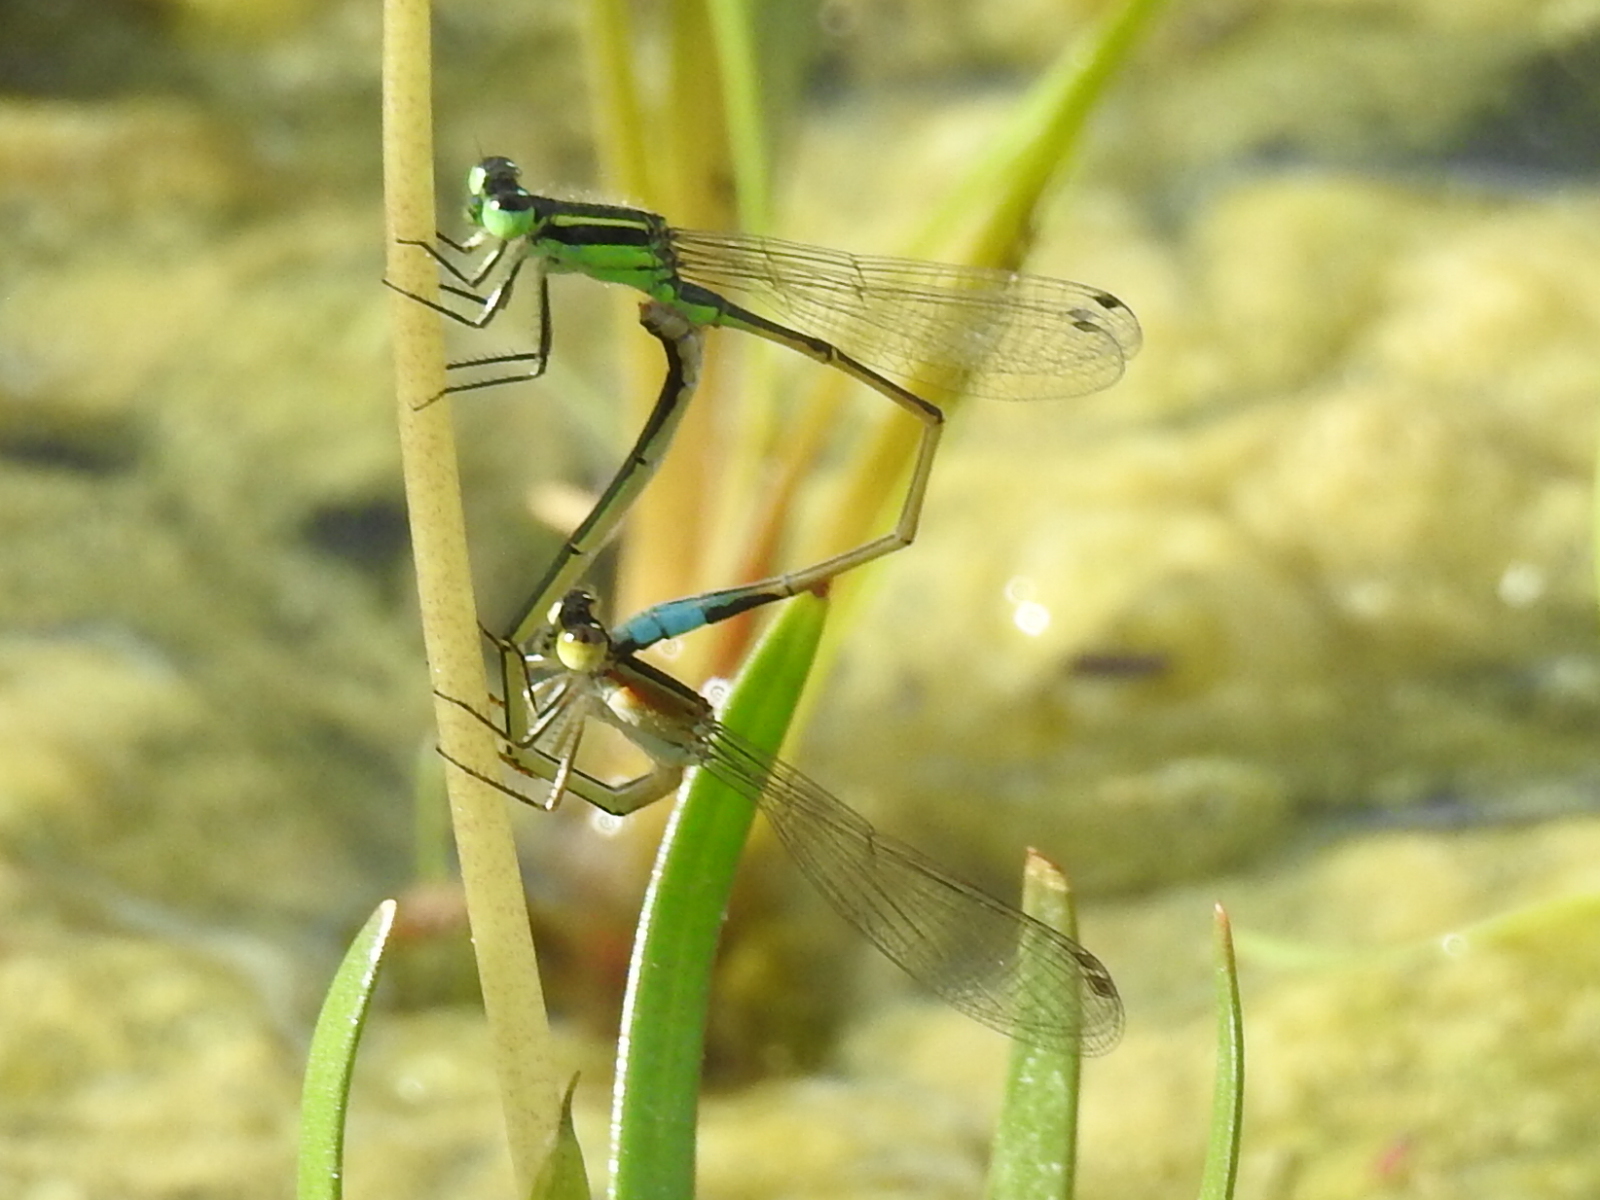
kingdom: Animalia
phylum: Arthropoda
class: Insecta
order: Odonata
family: Coenagrionidae
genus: Ischnura
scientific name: Ischnura ramburii
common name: Rambur's forktail
